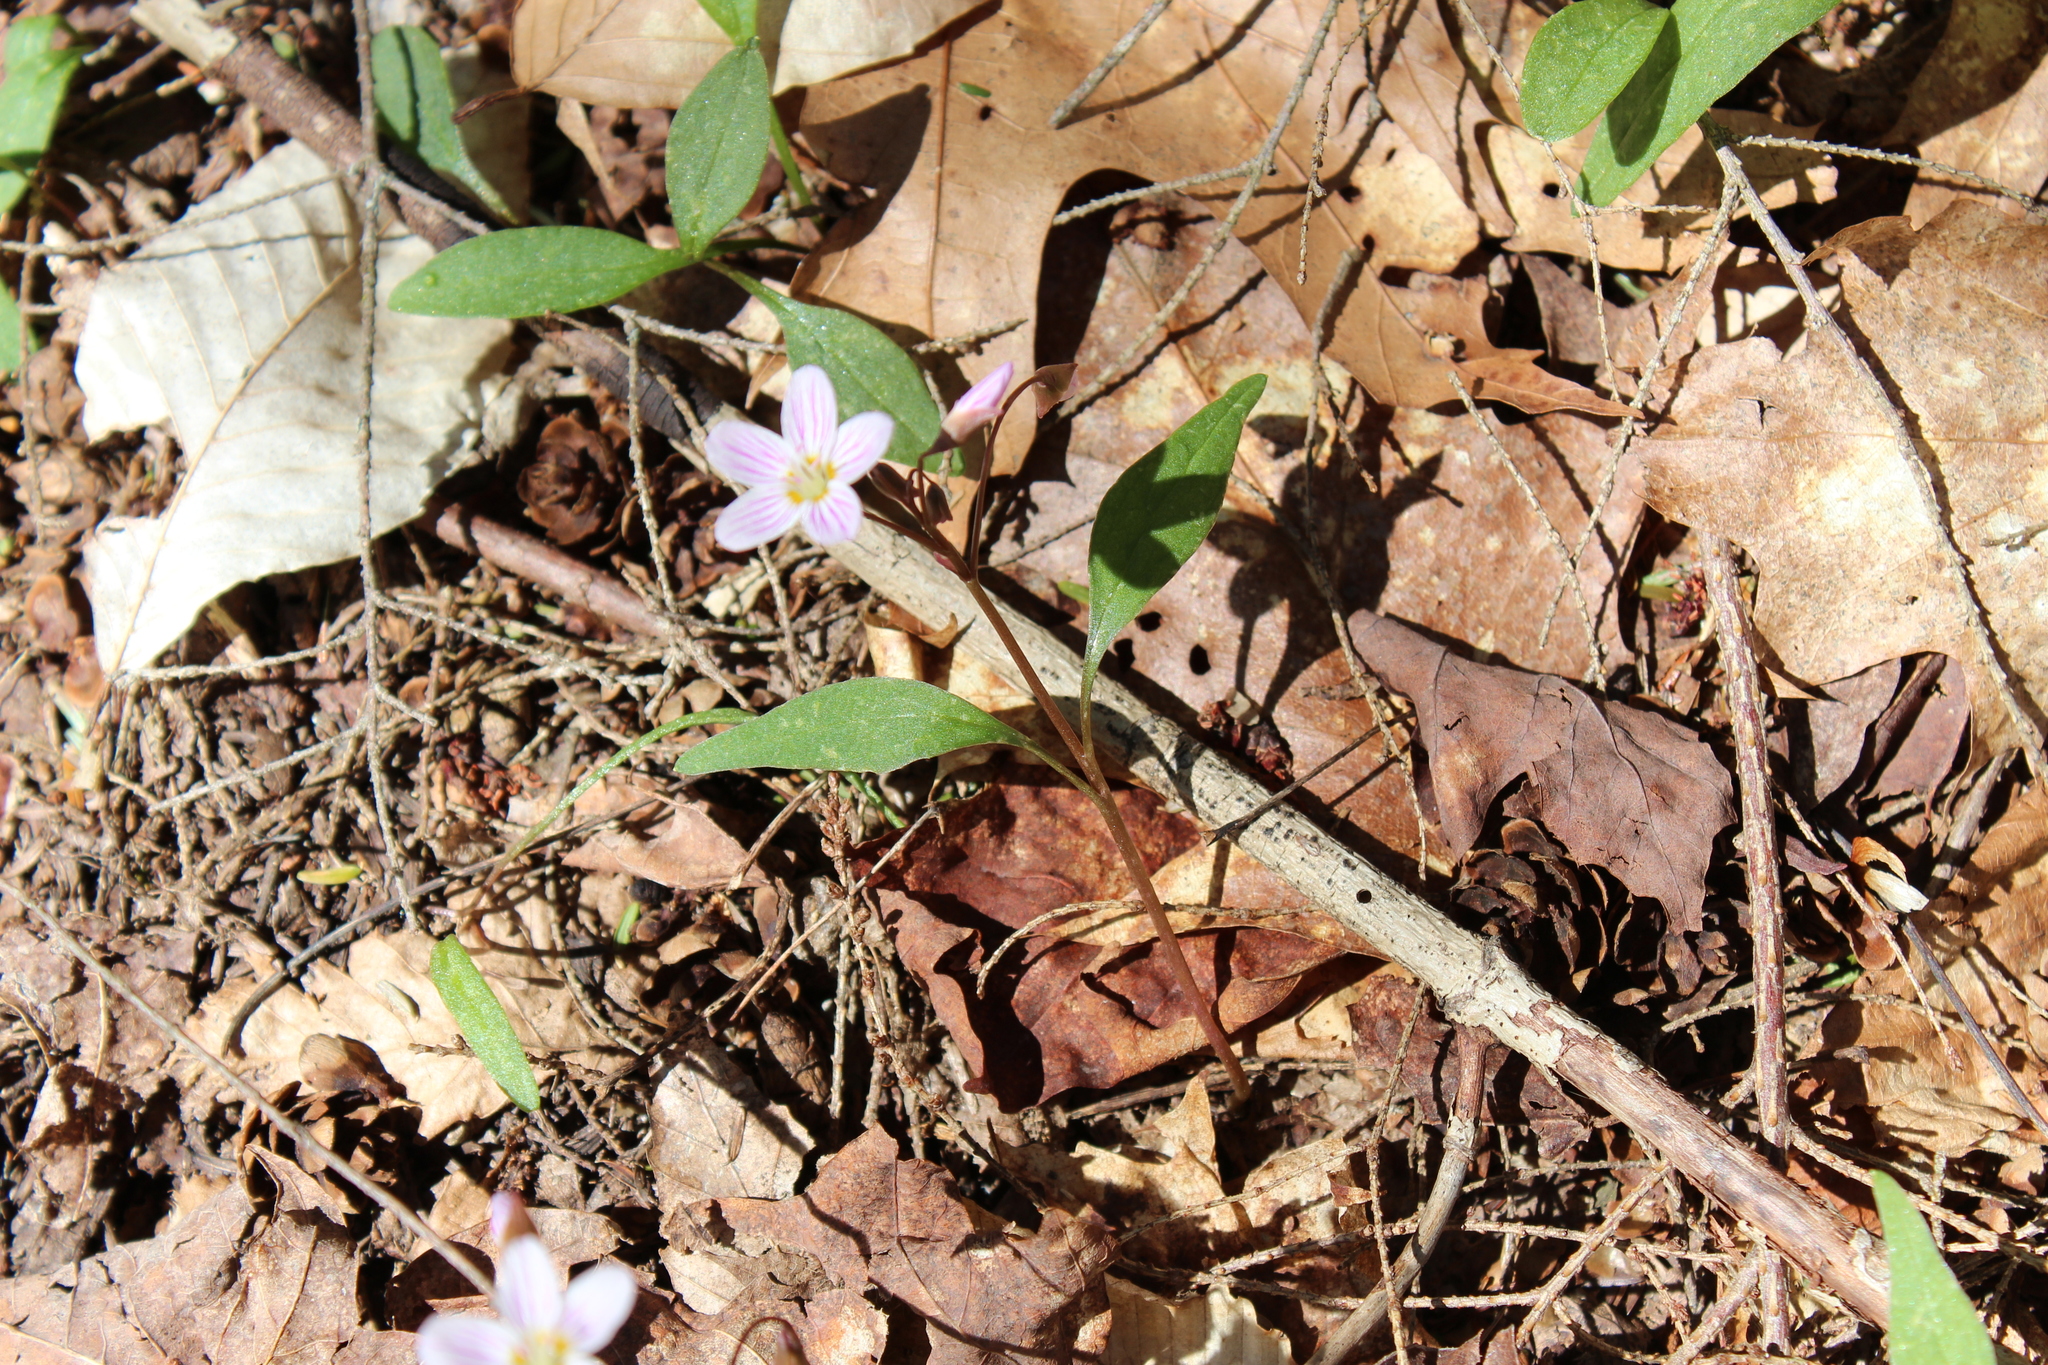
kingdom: Plantae
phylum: Tracheophyta
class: Magnoliopsida
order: Caryophyllales
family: Montiaceae
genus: Claytonia
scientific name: Claytonia caroliniana
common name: Carolina spring beauty
